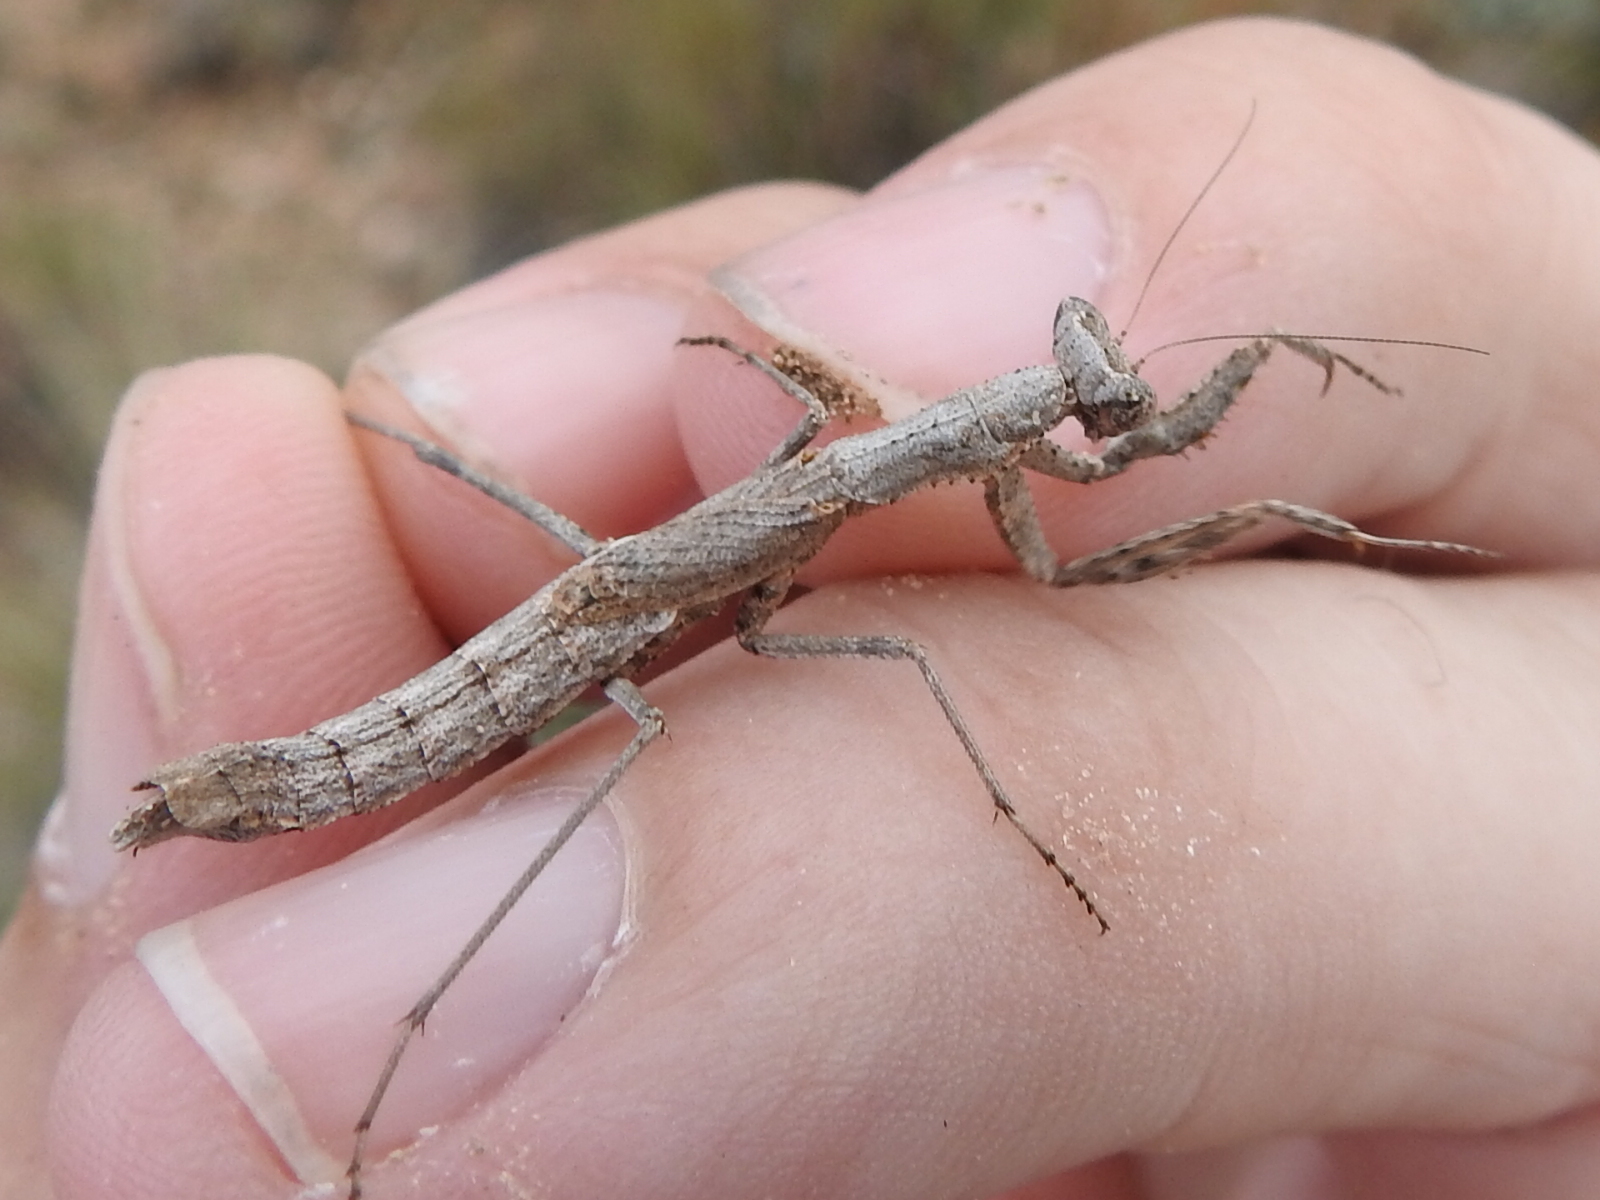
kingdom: Animalia
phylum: Arthropoda
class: Insecta
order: Mantodea
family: Amelidae
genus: Litaneutria
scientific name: Litaneutria minor
